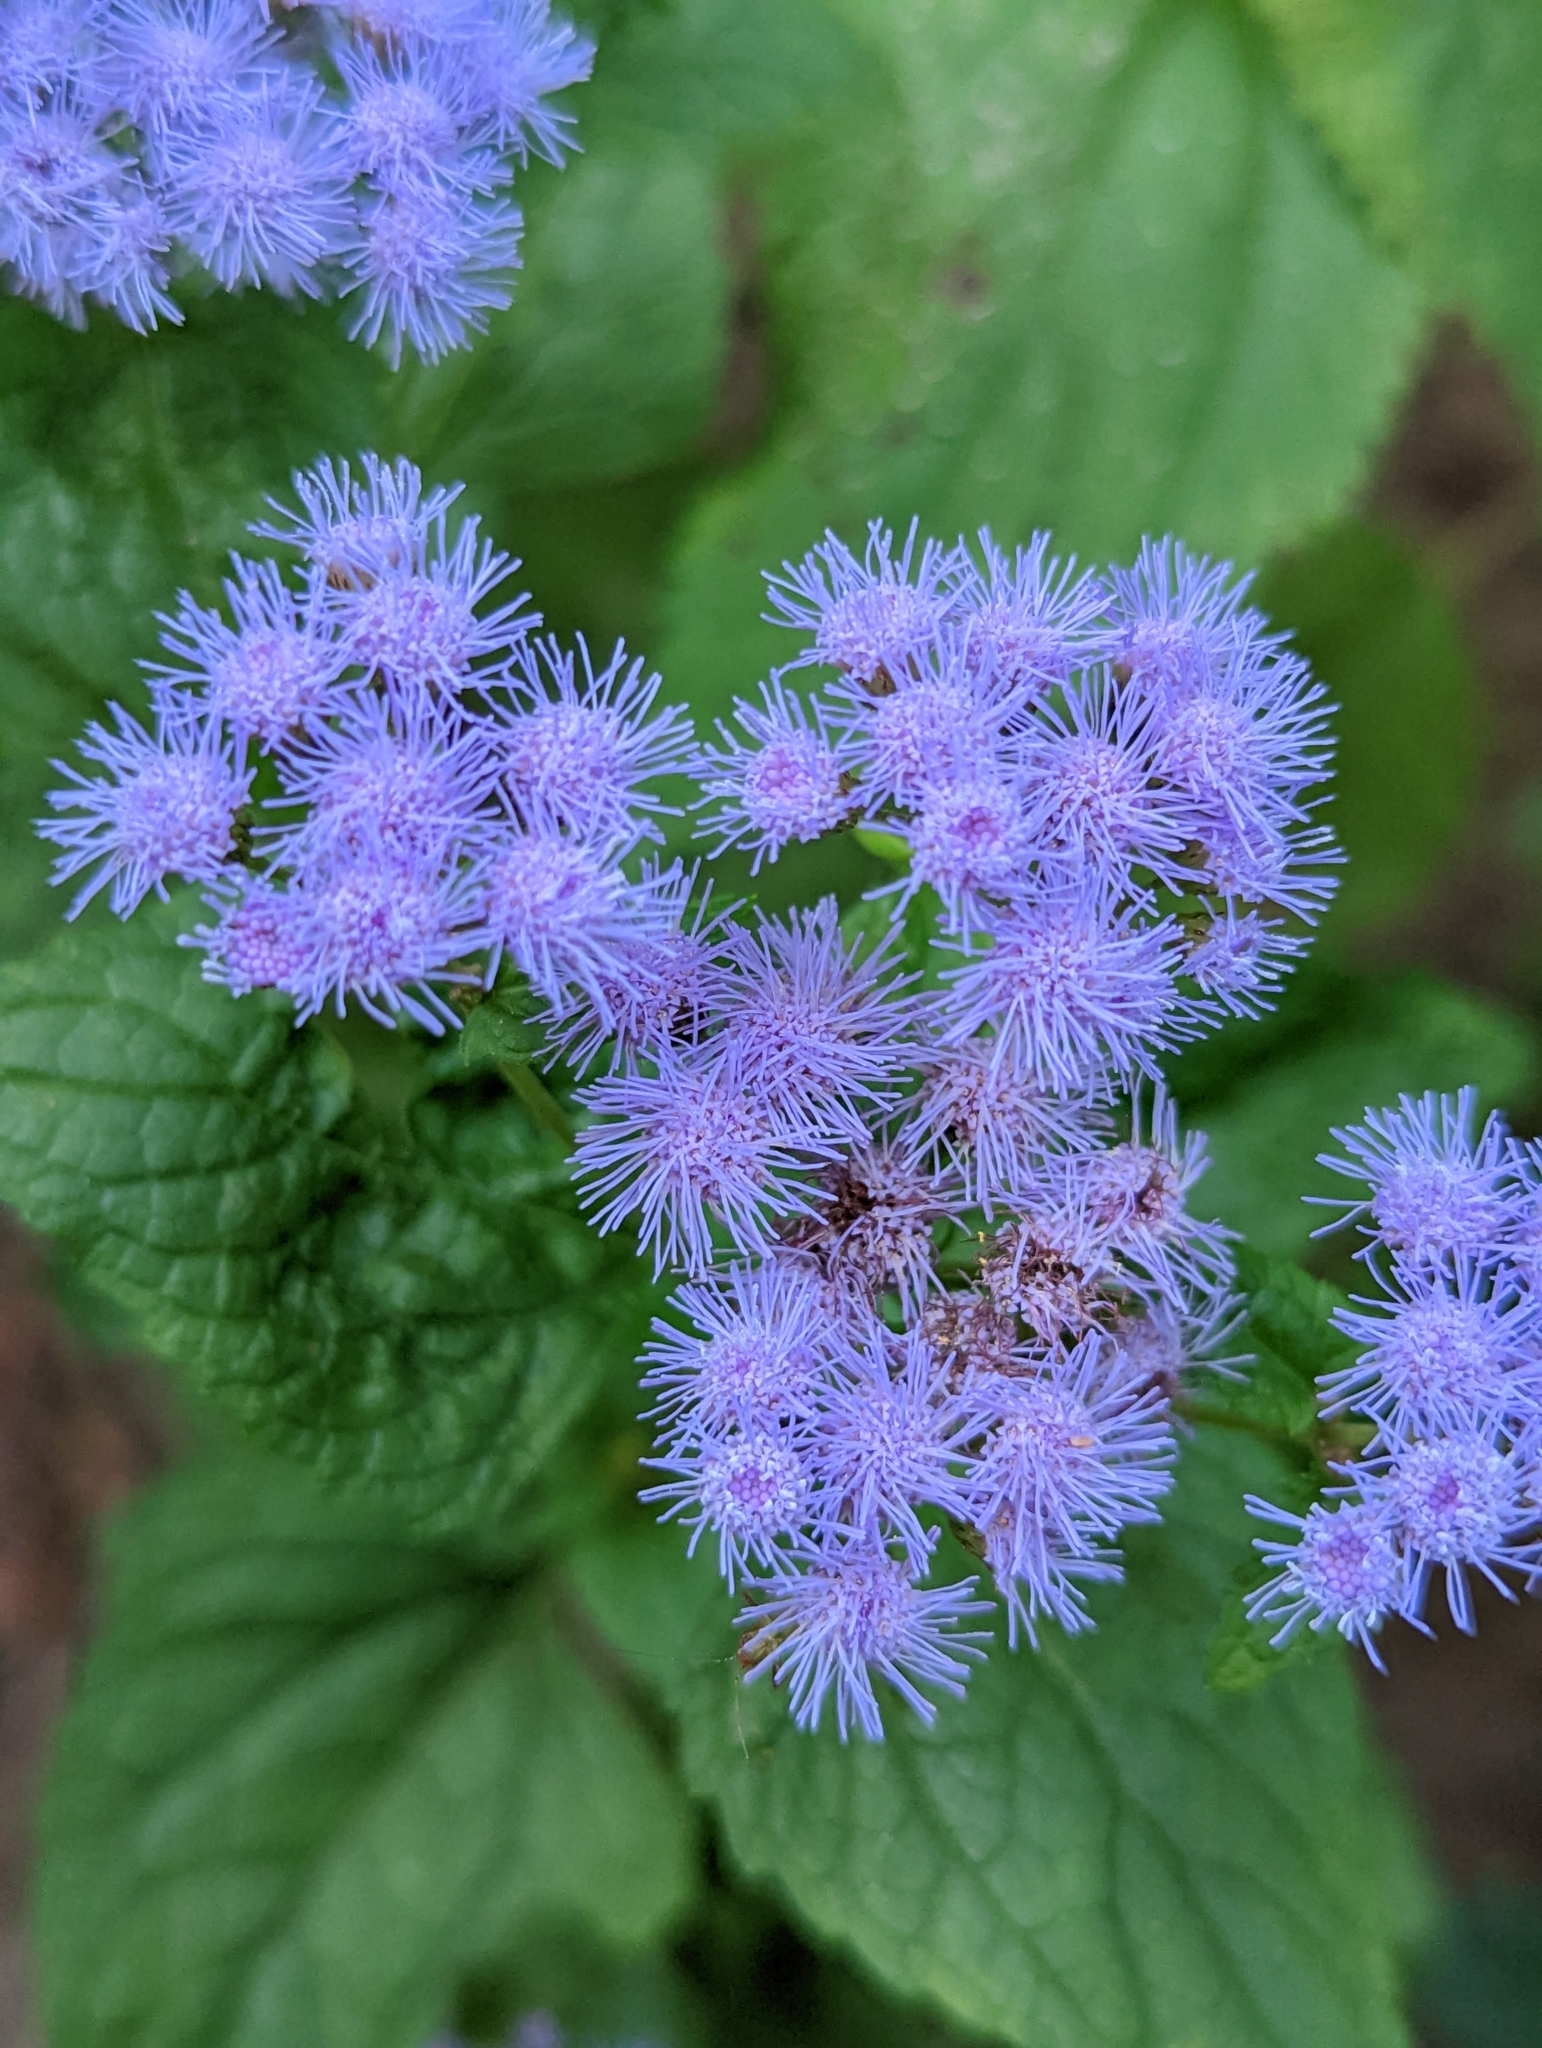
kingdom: Plantae
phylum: Tracheophyta
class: Magnoliopsida
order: Asterales
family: Asteraceae
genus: Conoclinium
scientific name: Conoclinium coelestinum
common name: Blue mistflower
